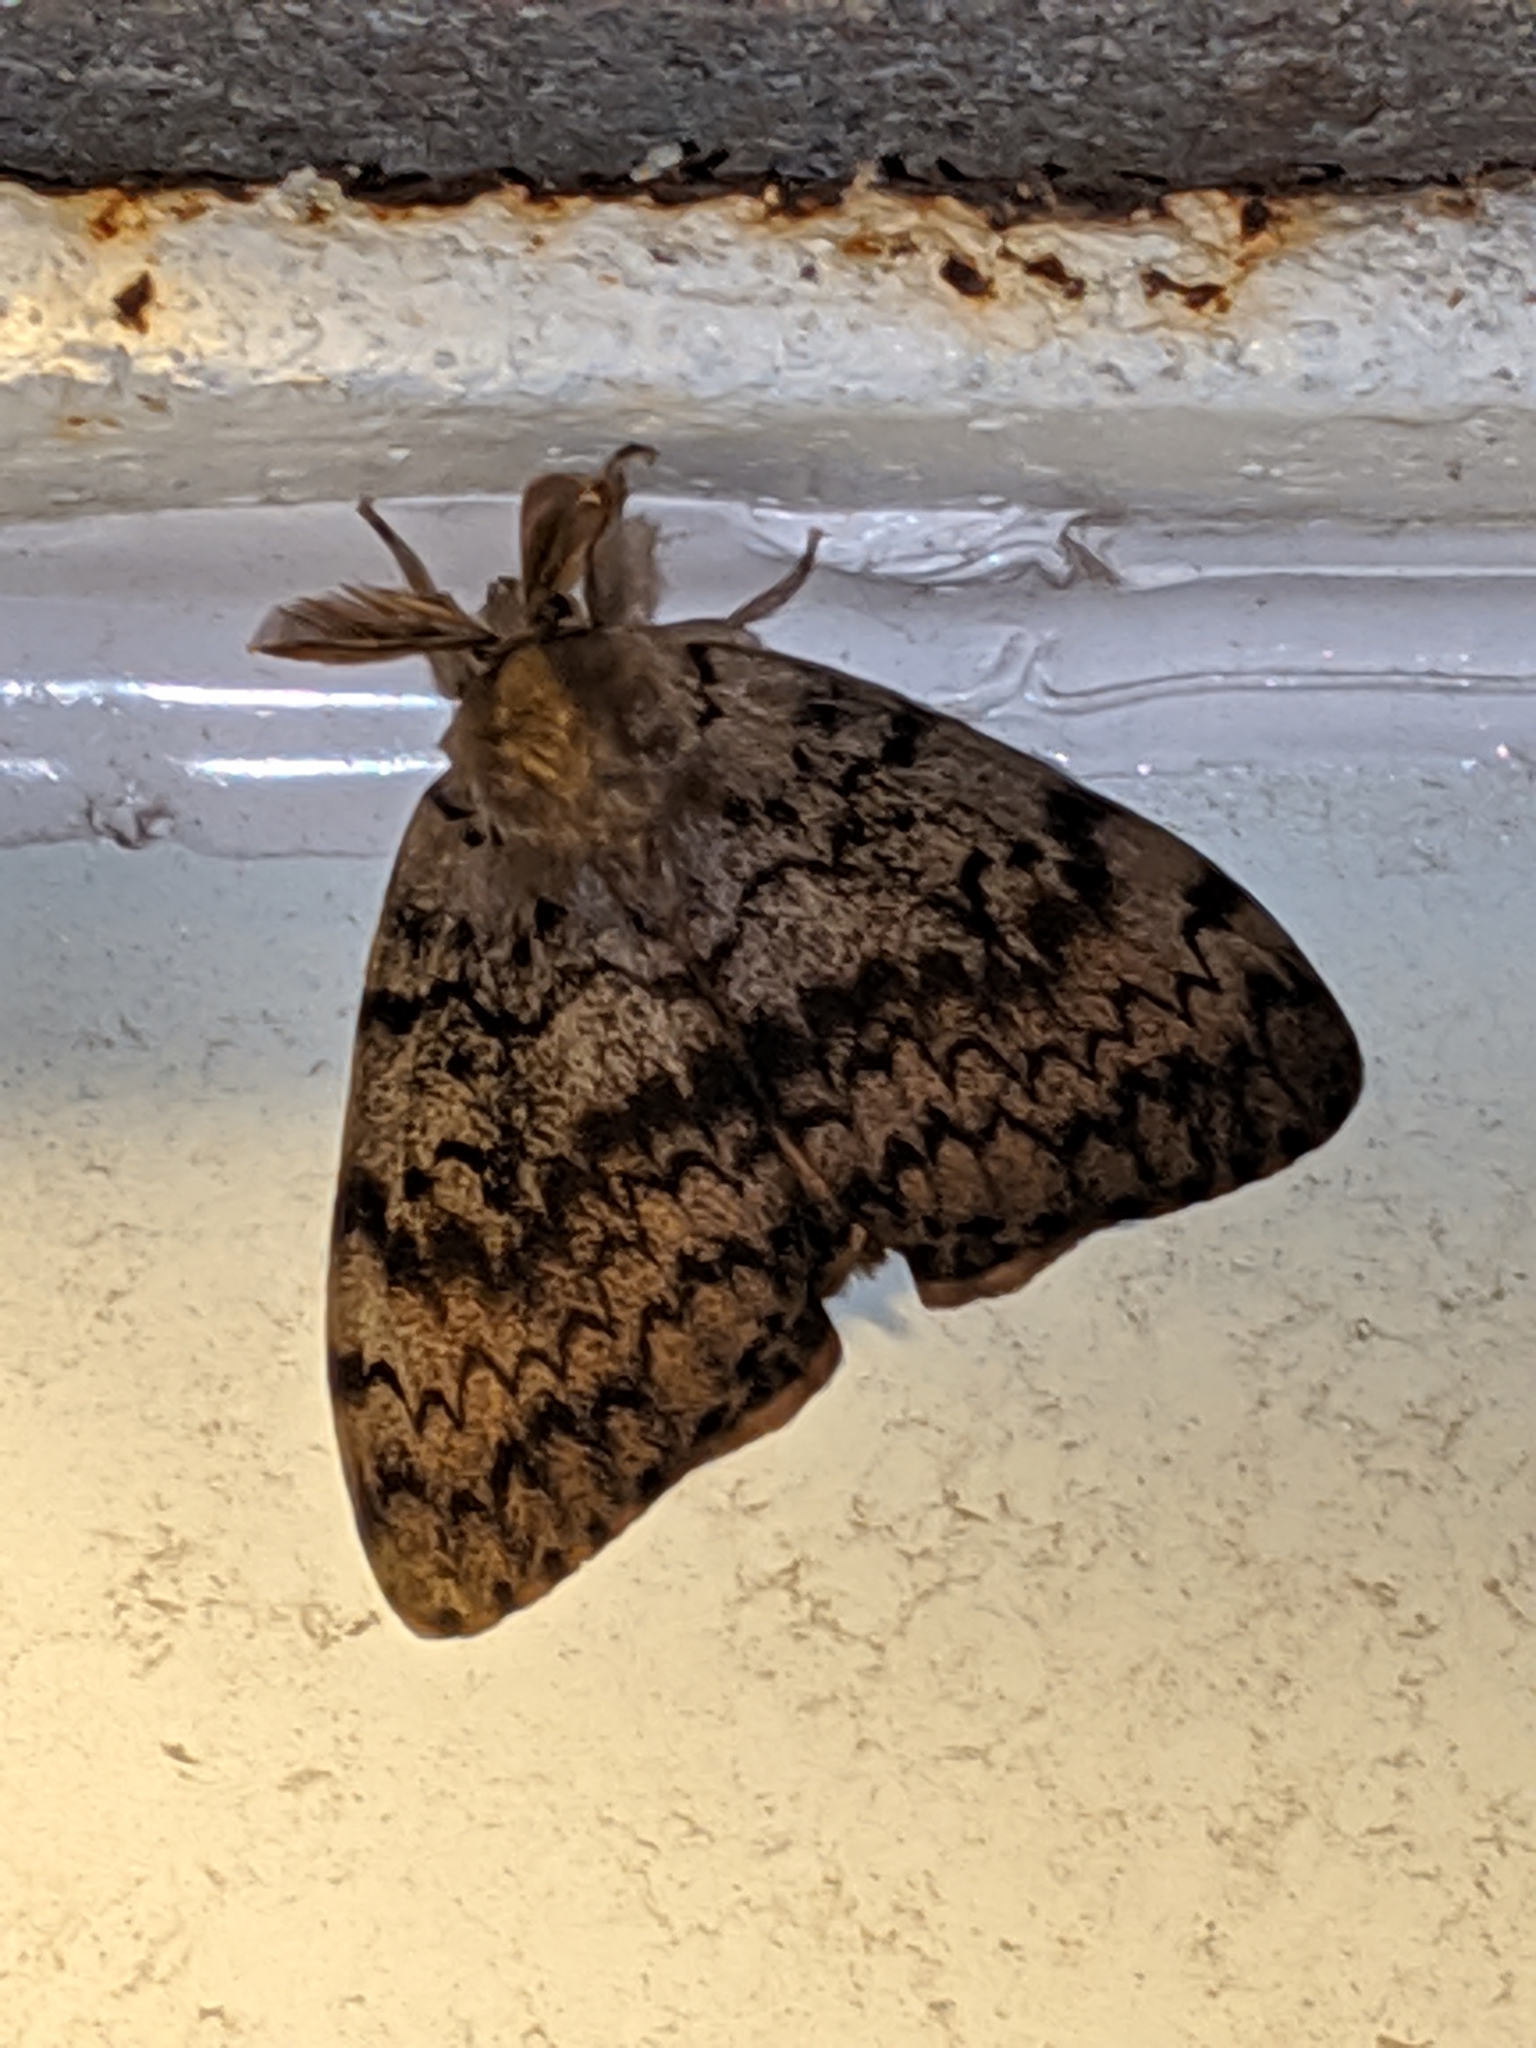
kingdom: Animalia
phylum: Arthropoda
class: Insecta
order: Lepidoptera
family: Erebidae
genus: Lymantria
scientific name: Lymantria dispar
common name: Gypsy moth
